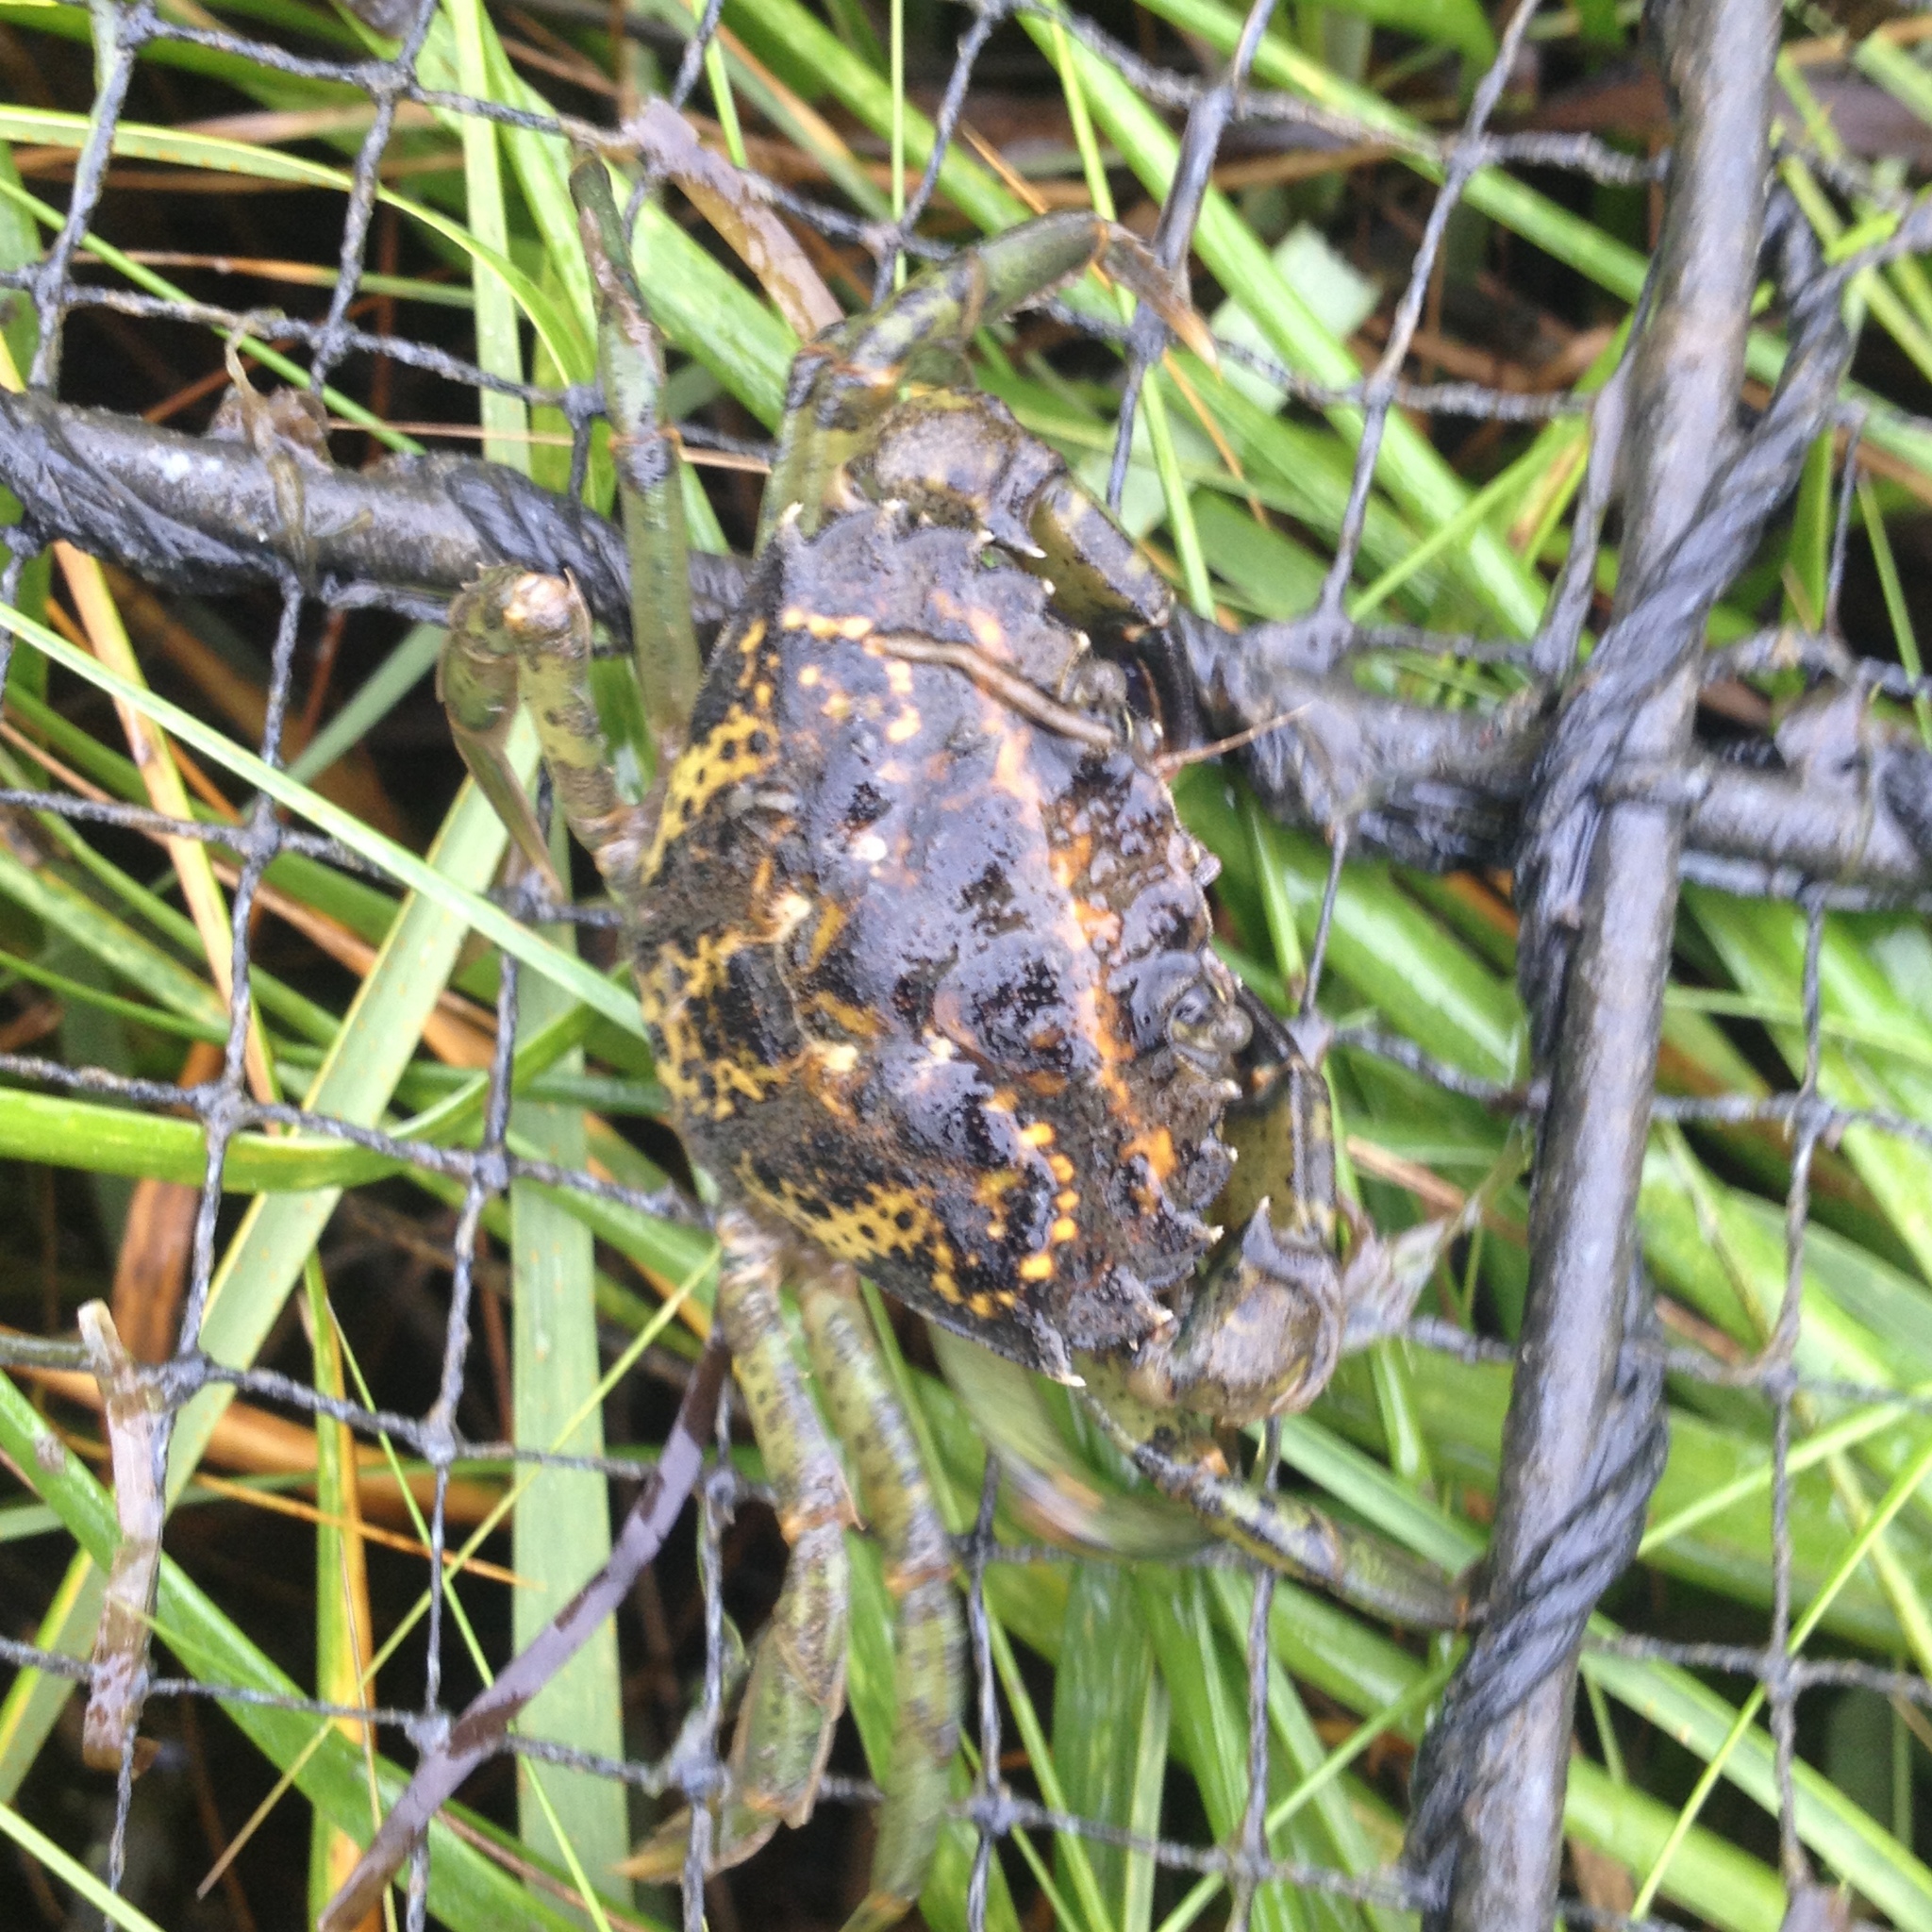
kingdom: Animalia
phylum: Arthropoda
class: Malacostraca
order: Decapoda
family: Carcinidae
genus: Carcinus
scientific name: Carcinus maenas
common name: European green crab
